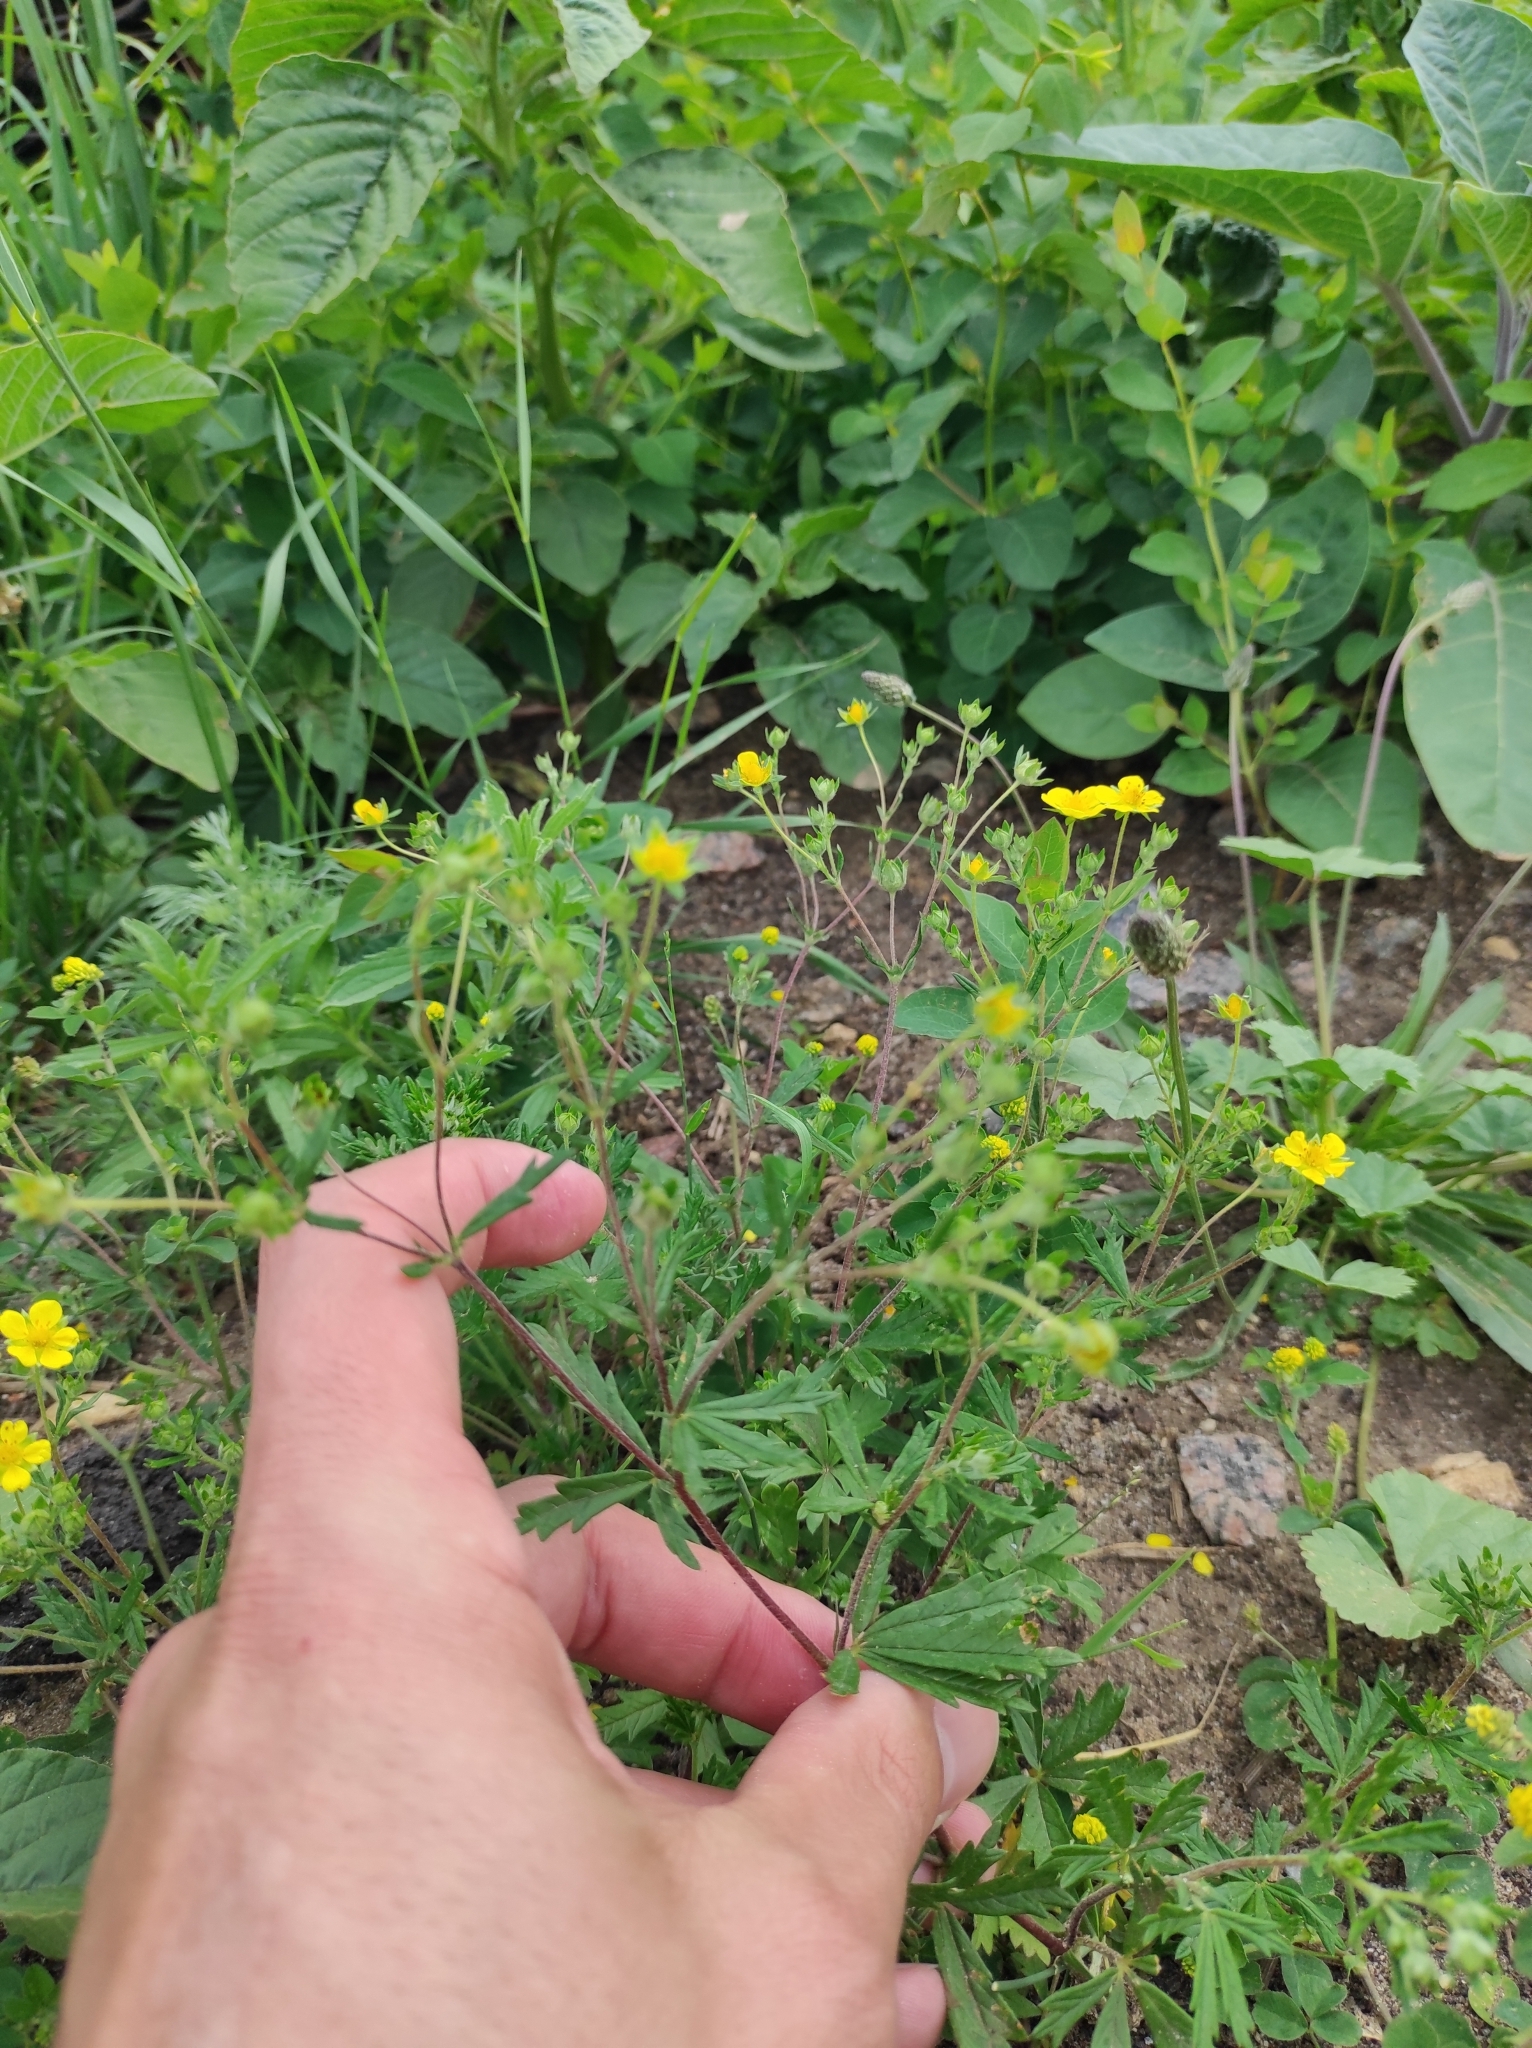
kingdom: Plantae
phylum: Tracheophyta
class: Magnoliopsida
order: Rosales
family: Rosaceae
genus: Potentilla
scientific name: Potentilla argentea
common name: Hoary cinquefoil
